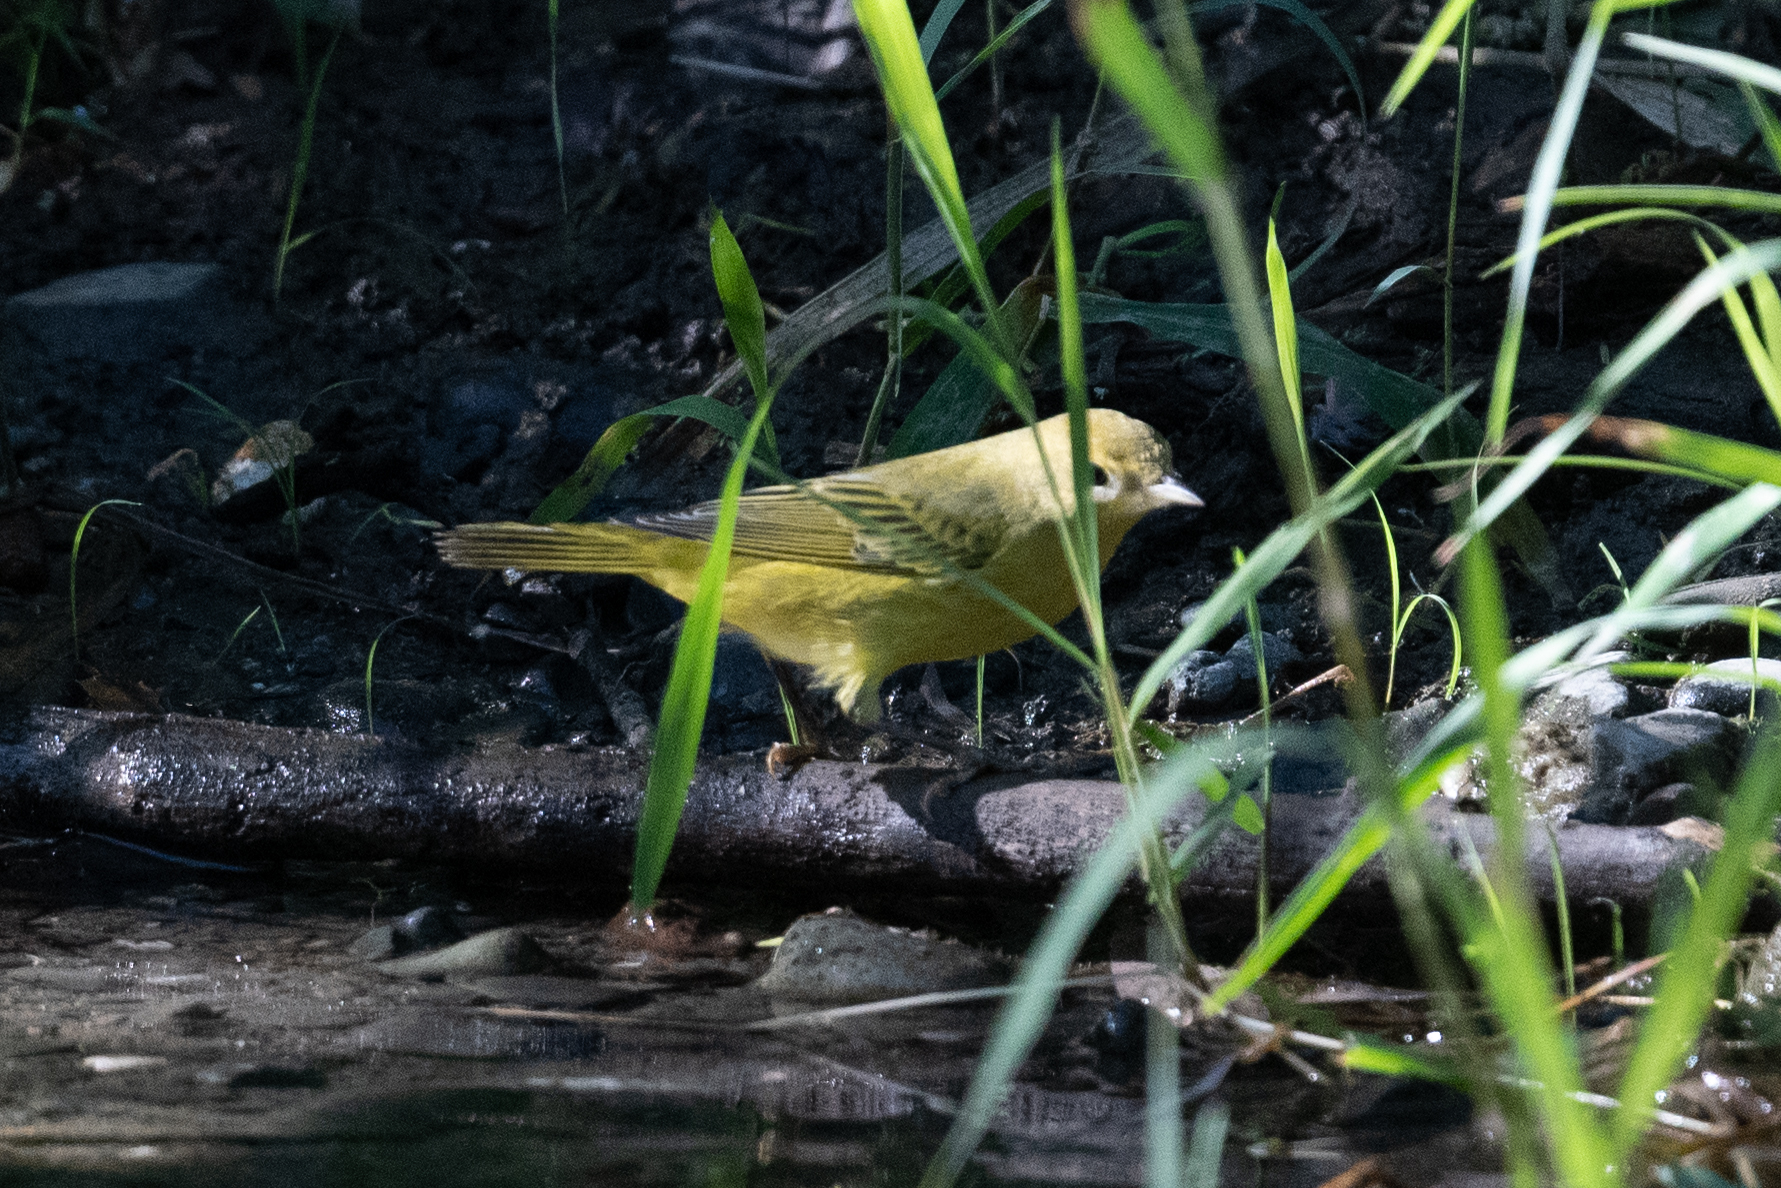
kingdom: Animalia
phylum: Chordata
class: Aves
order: Passeriformes
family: Parulidae
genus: Setophaga
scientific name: Setophaga petechia
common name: Yellow warbler
